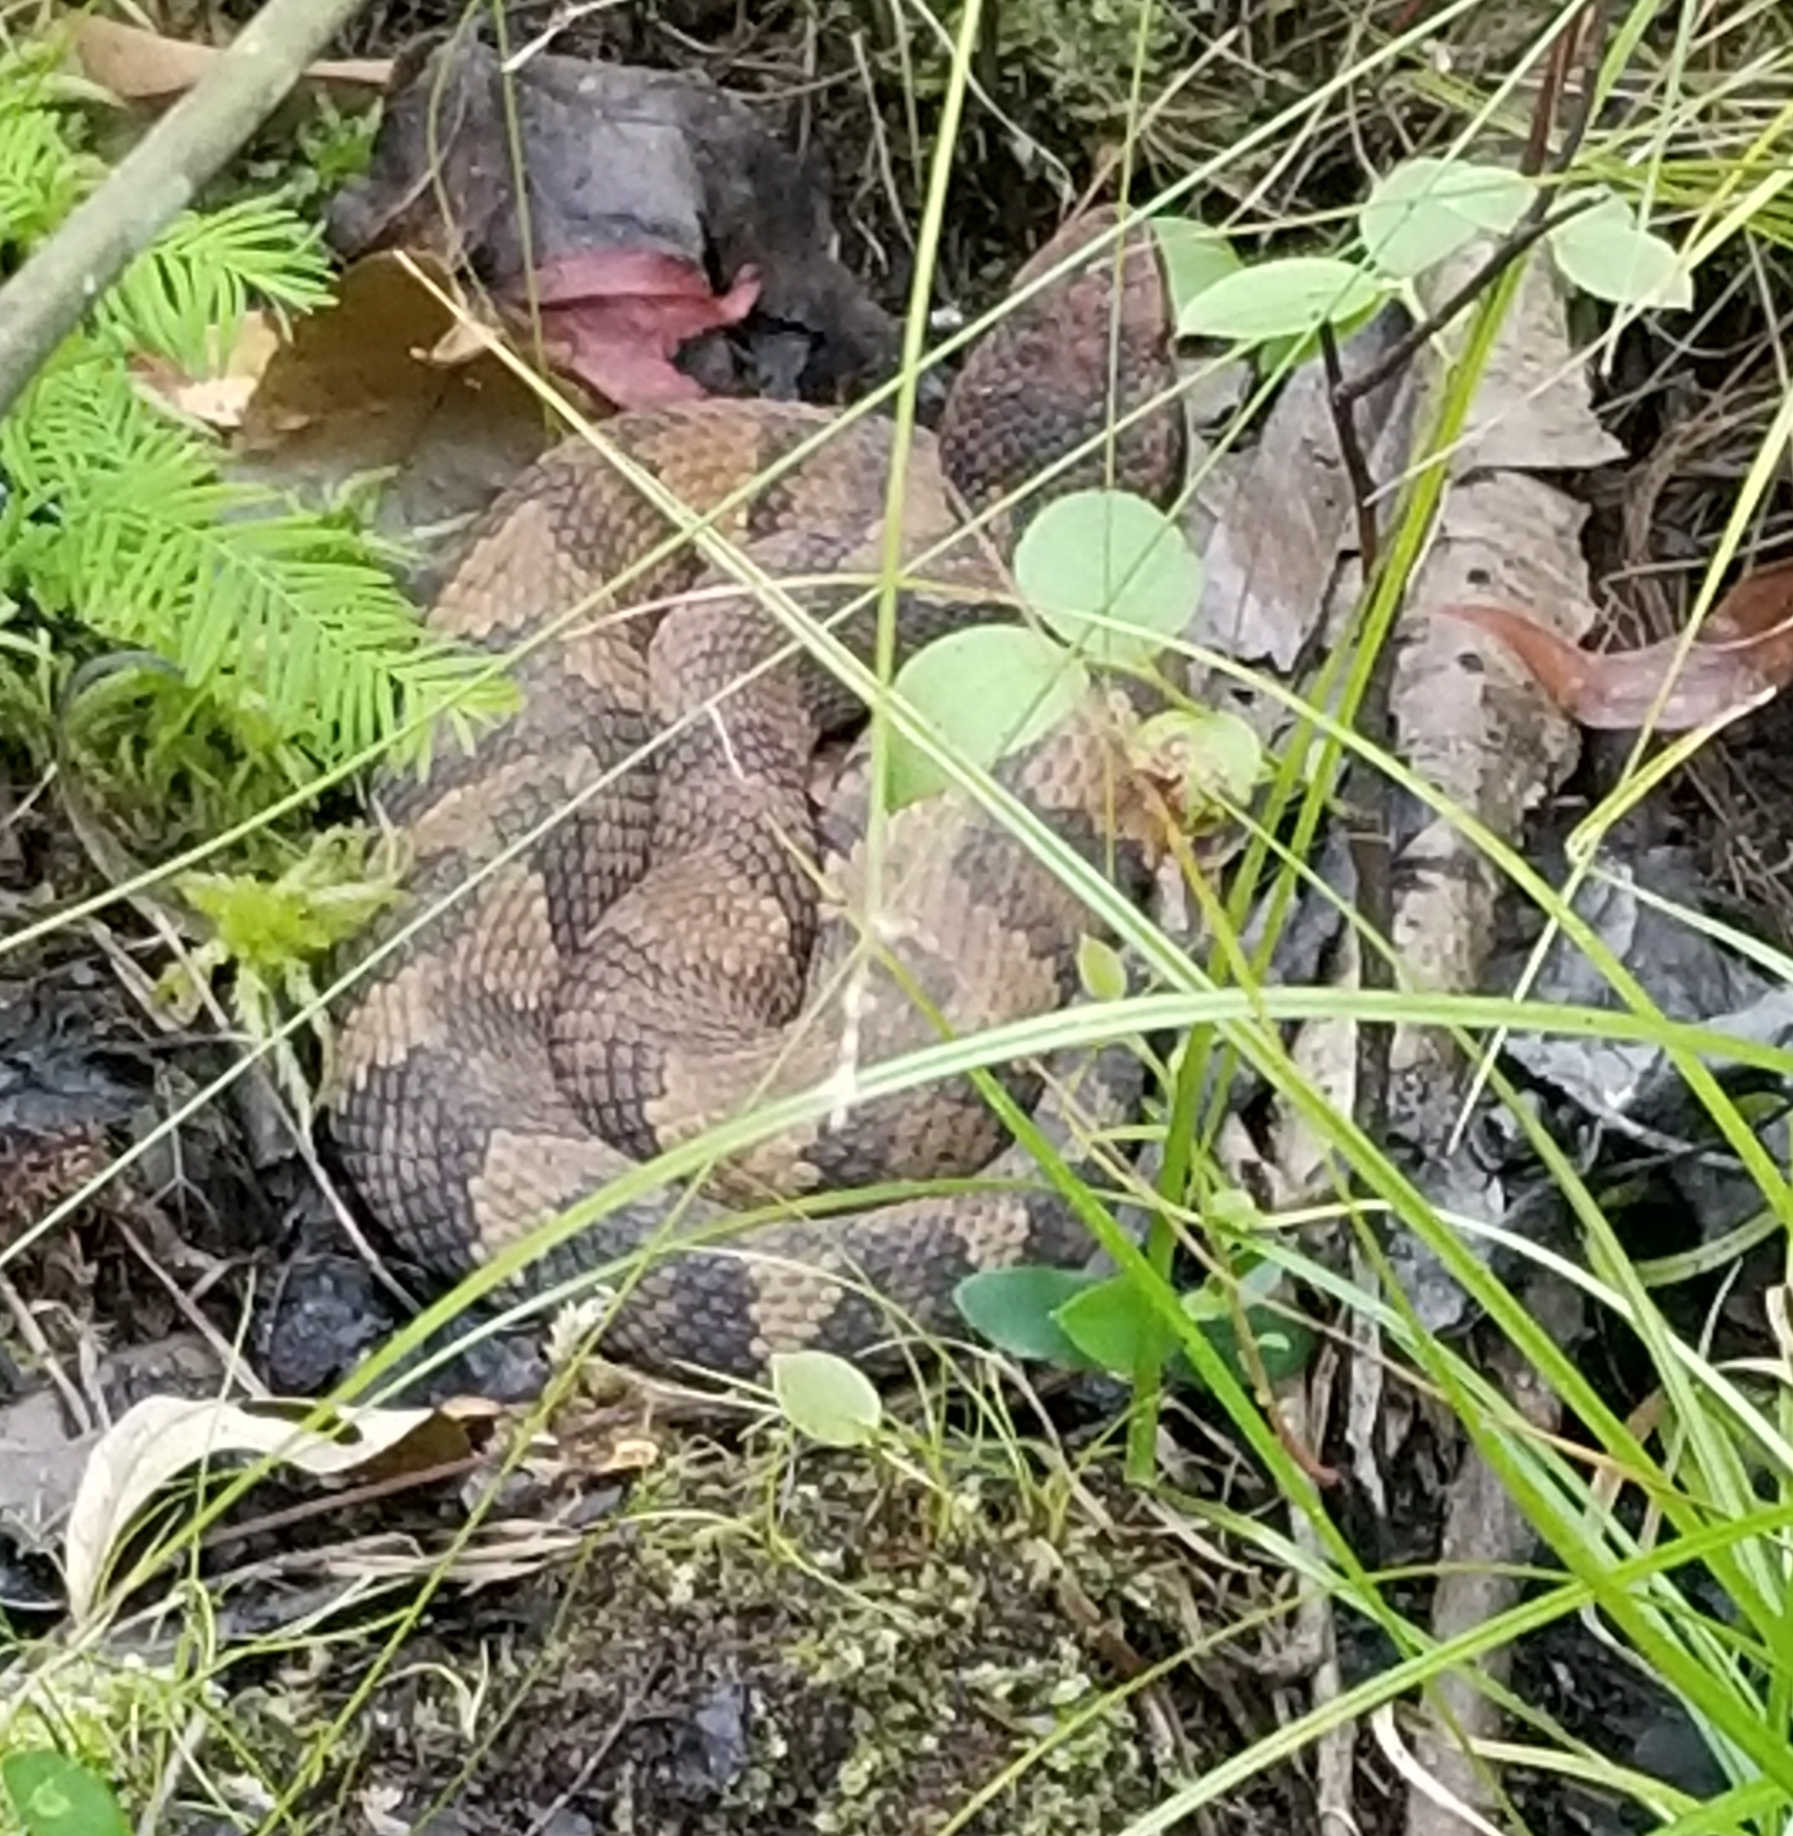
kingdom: Animalia
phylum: Chordata
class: Squamata
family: Viperidae
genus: Agkistrodon
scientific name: Agkistrodon piscivorus
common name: Cottonmouth
